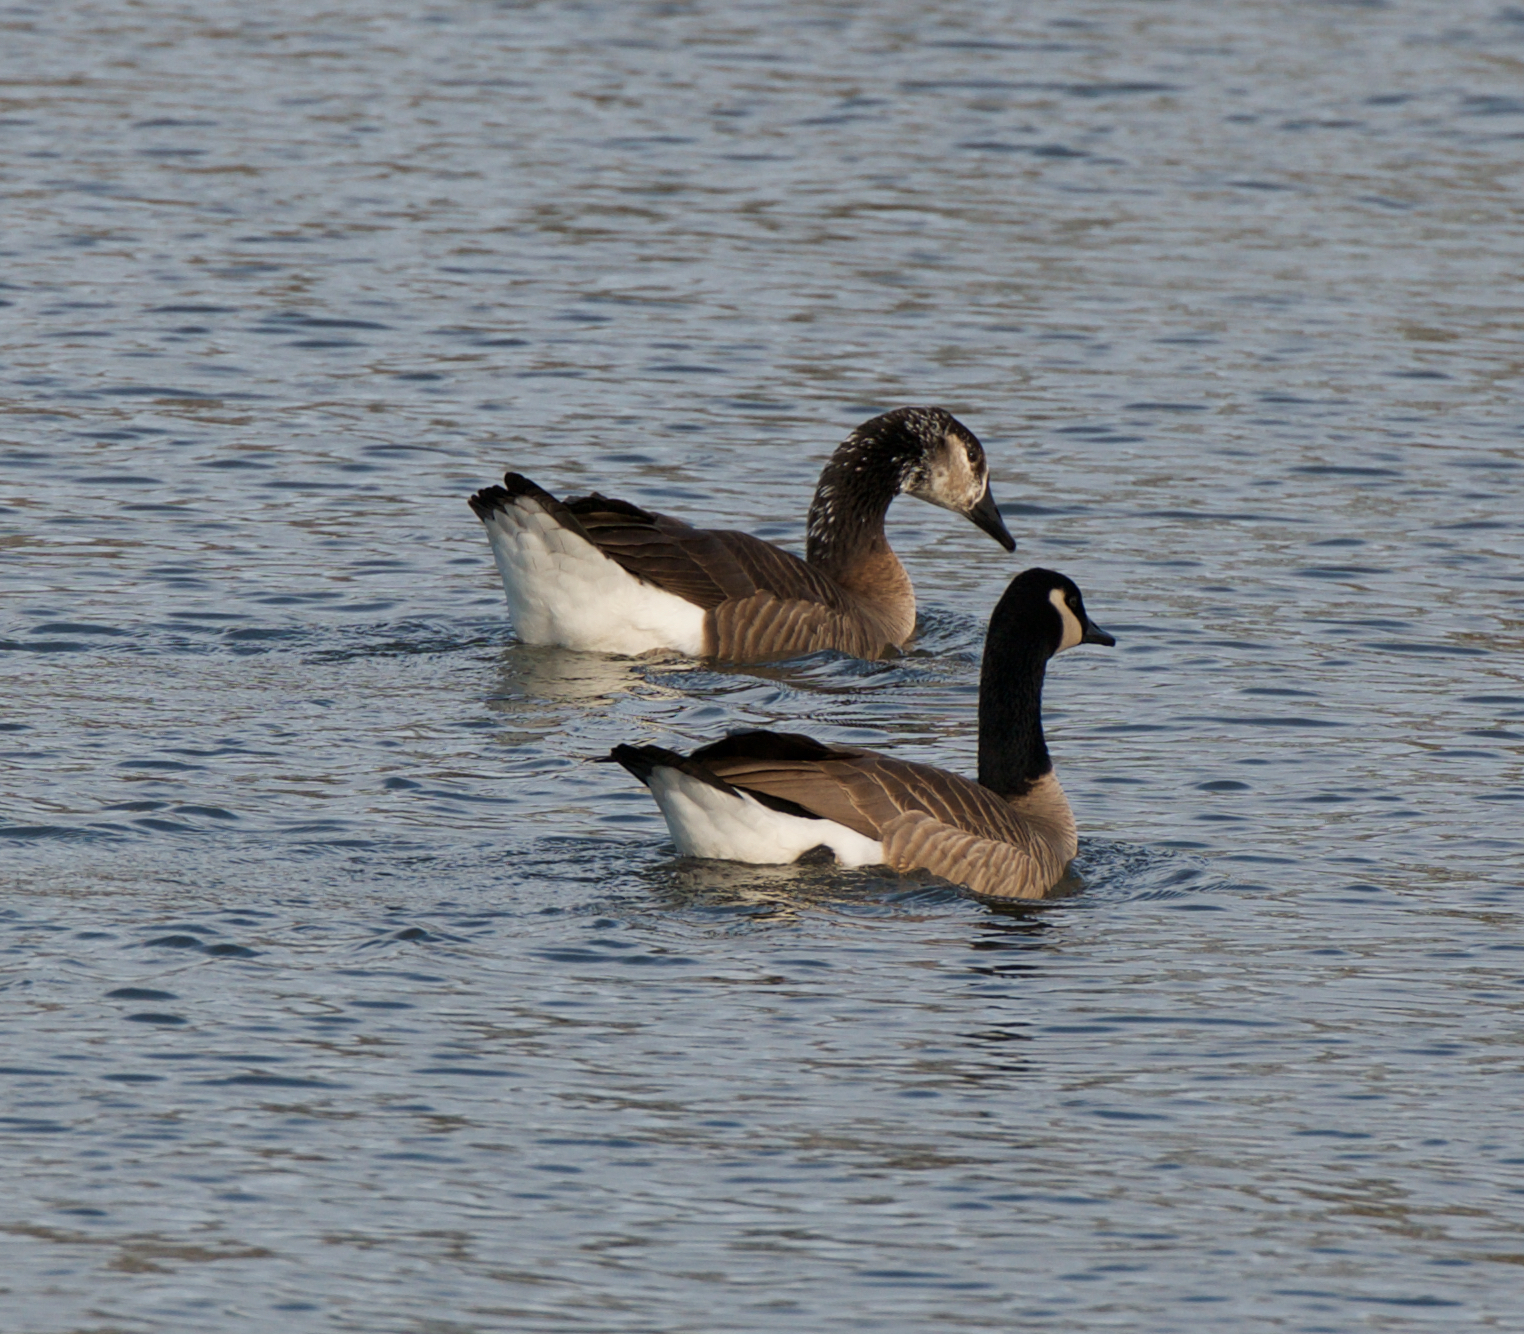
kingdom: Animalia
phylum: Chordata
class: Aves
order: Anseriformes
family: Anatidae
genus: Branta
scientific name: Branta canadensis
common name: Canada goose
